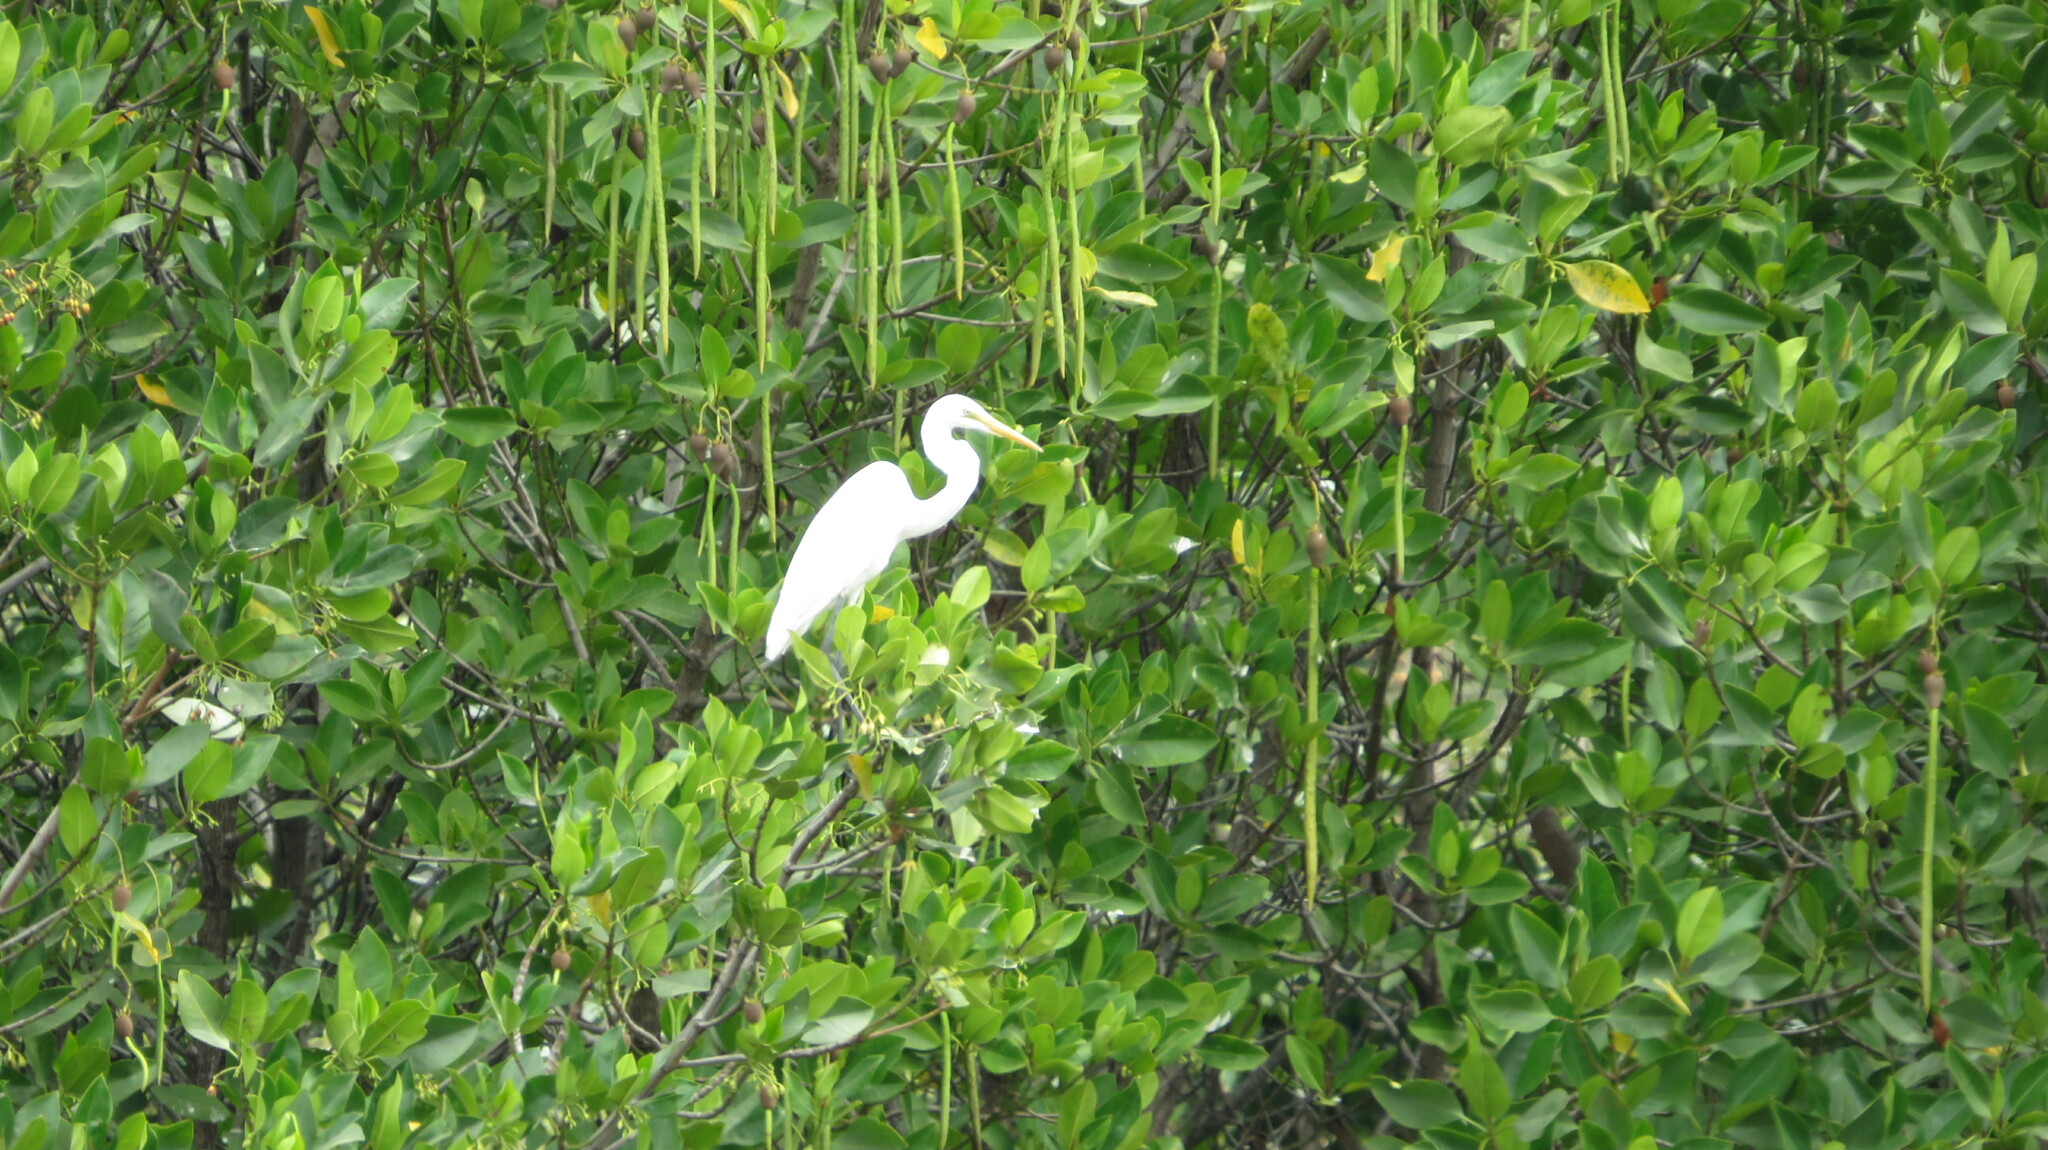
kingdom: Animalia
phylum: Chordata
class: Aves
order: Pelecaniformes
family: Ardeidae
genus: Ardea
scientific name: Ardea modesta
